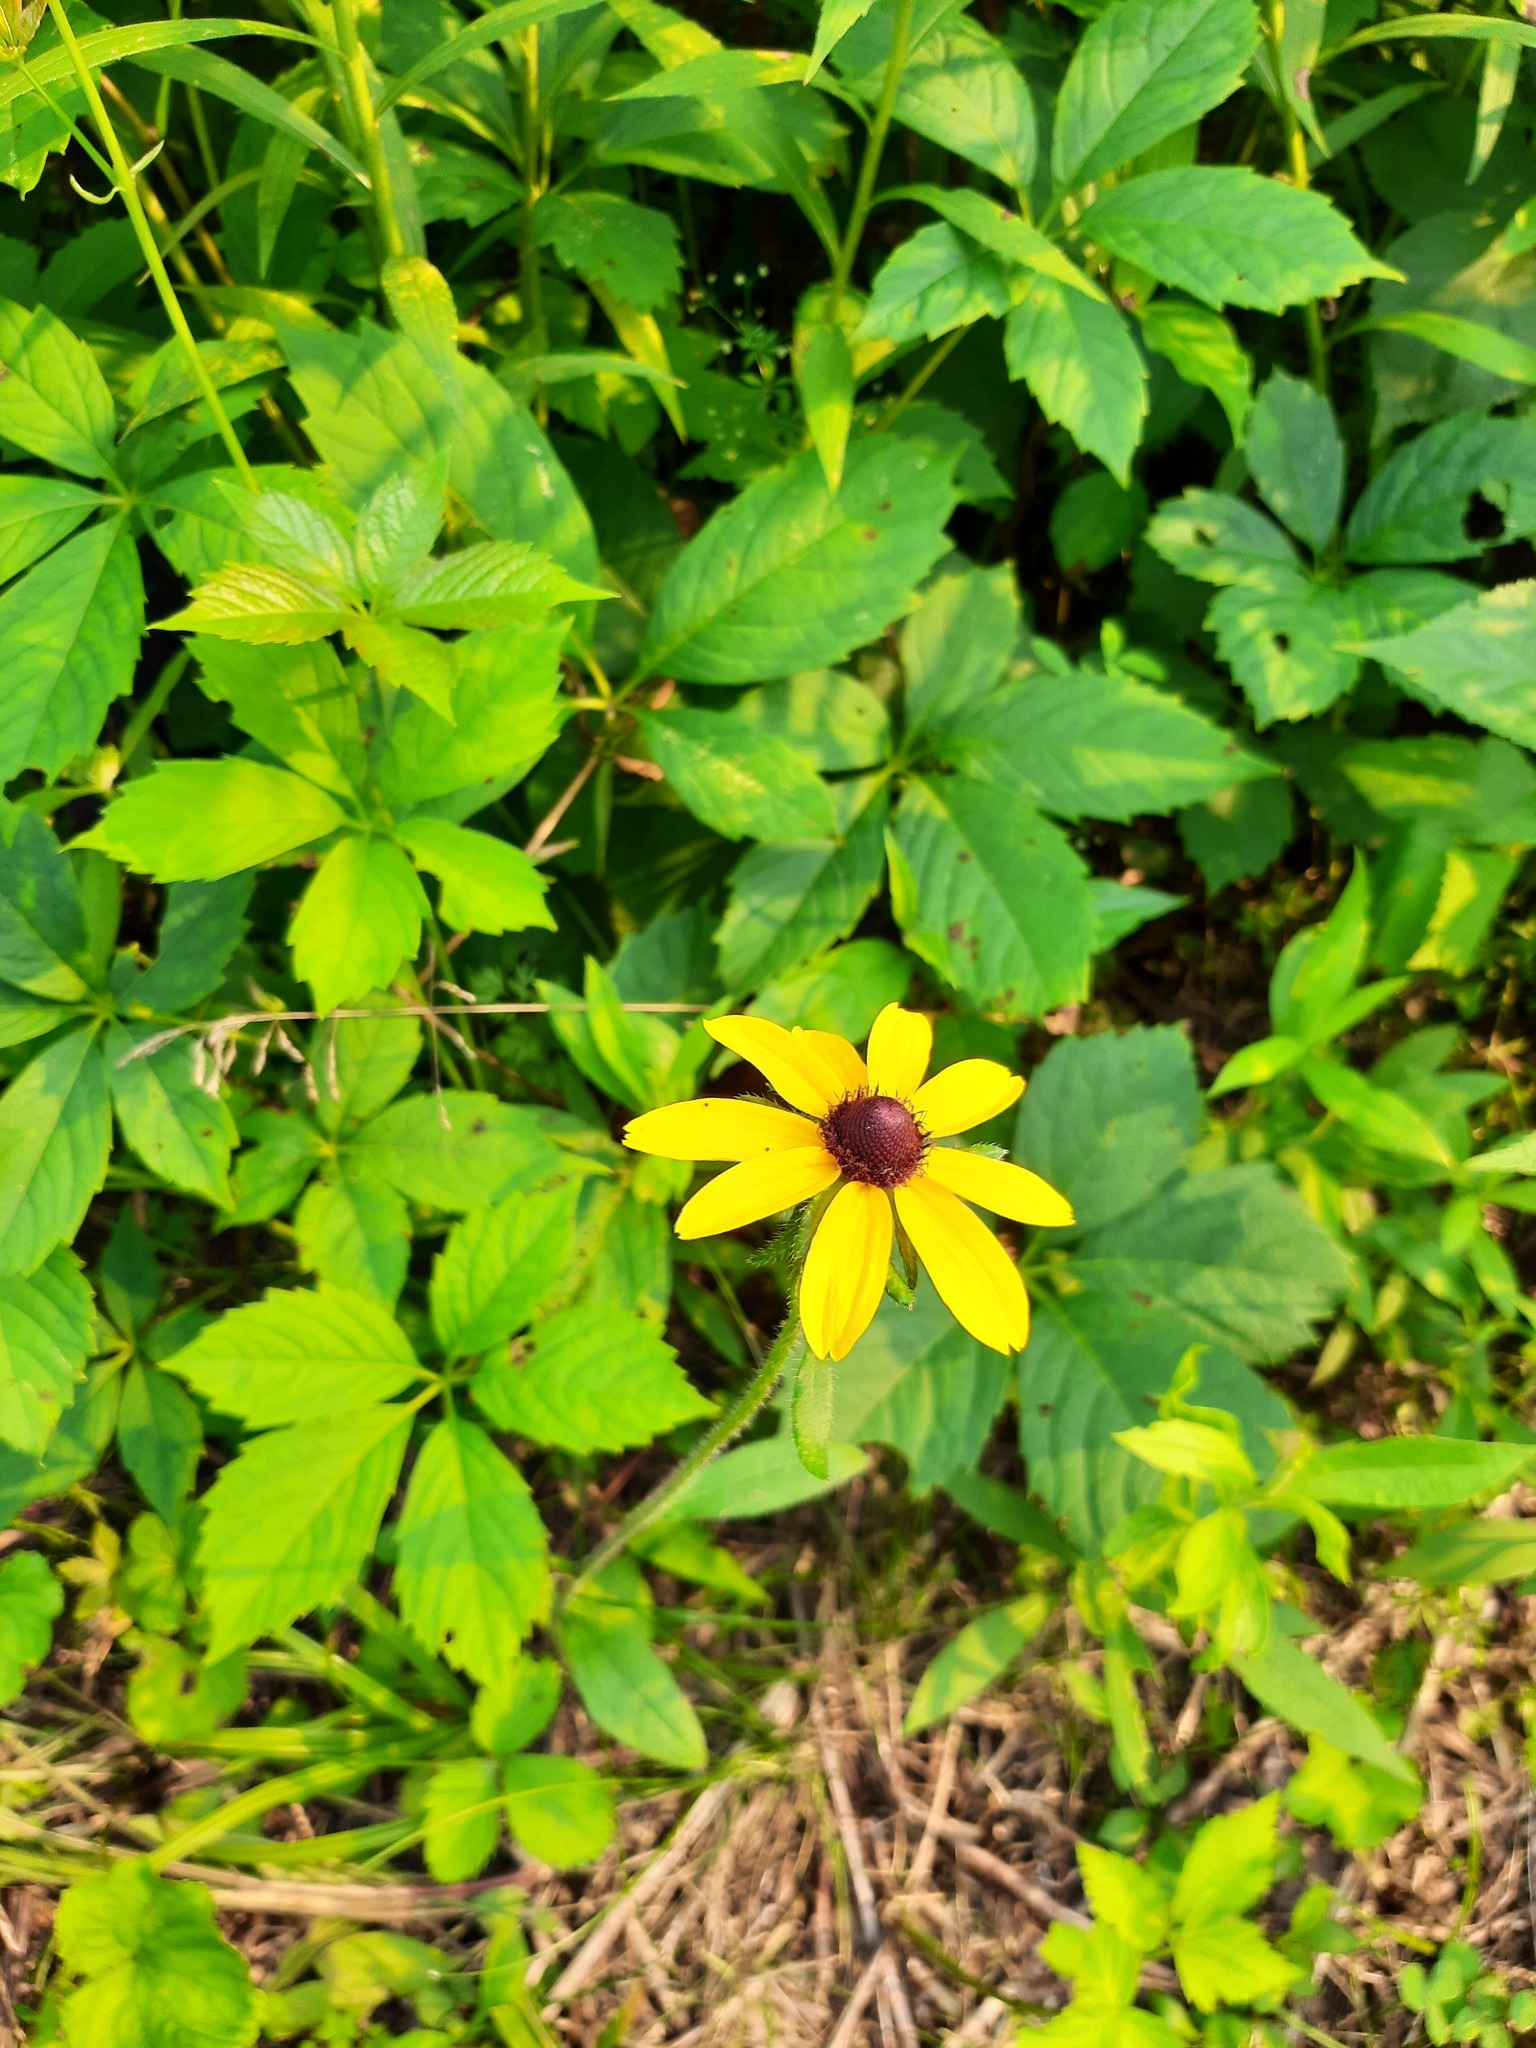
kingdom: Plantae
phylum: Tracheophyta
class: Magnoliopsida
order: Asterales
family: Asteraceae
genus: Rudbeckia
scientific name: Rudbeckia hirta
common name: Black-eyed-susan
